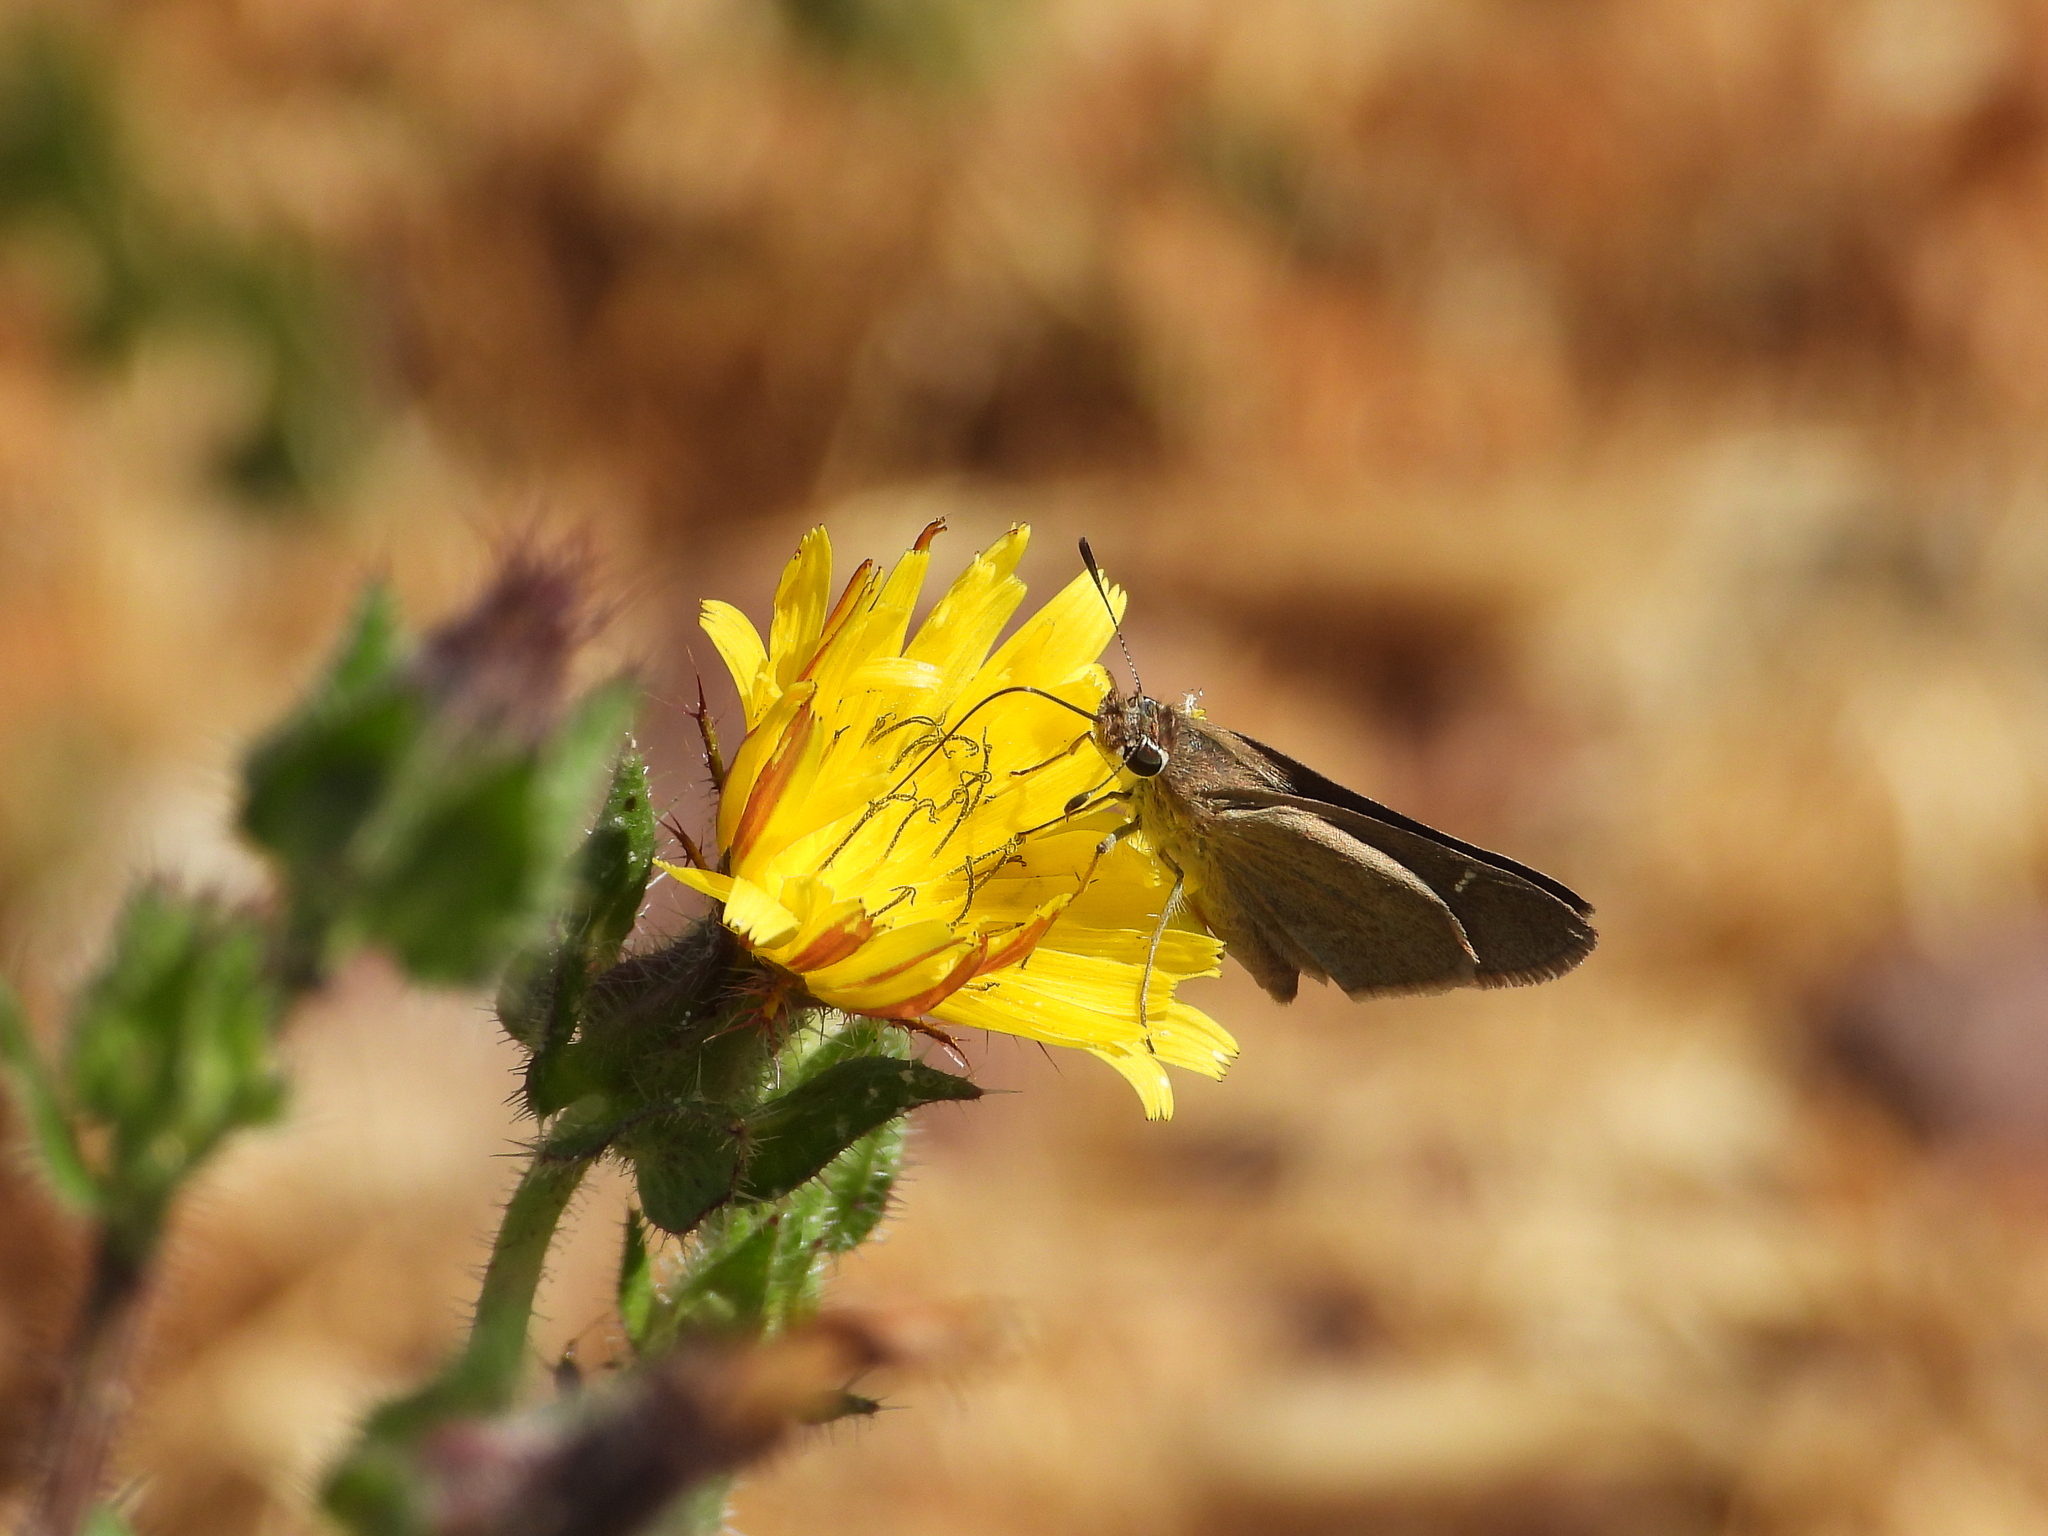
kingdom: Animalia
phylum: Arthropoda
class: Insecta
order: Lepidoptera
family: Hesperiidae
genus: Lerodea
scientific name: Lerodea eufala
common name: Eufala skipper
